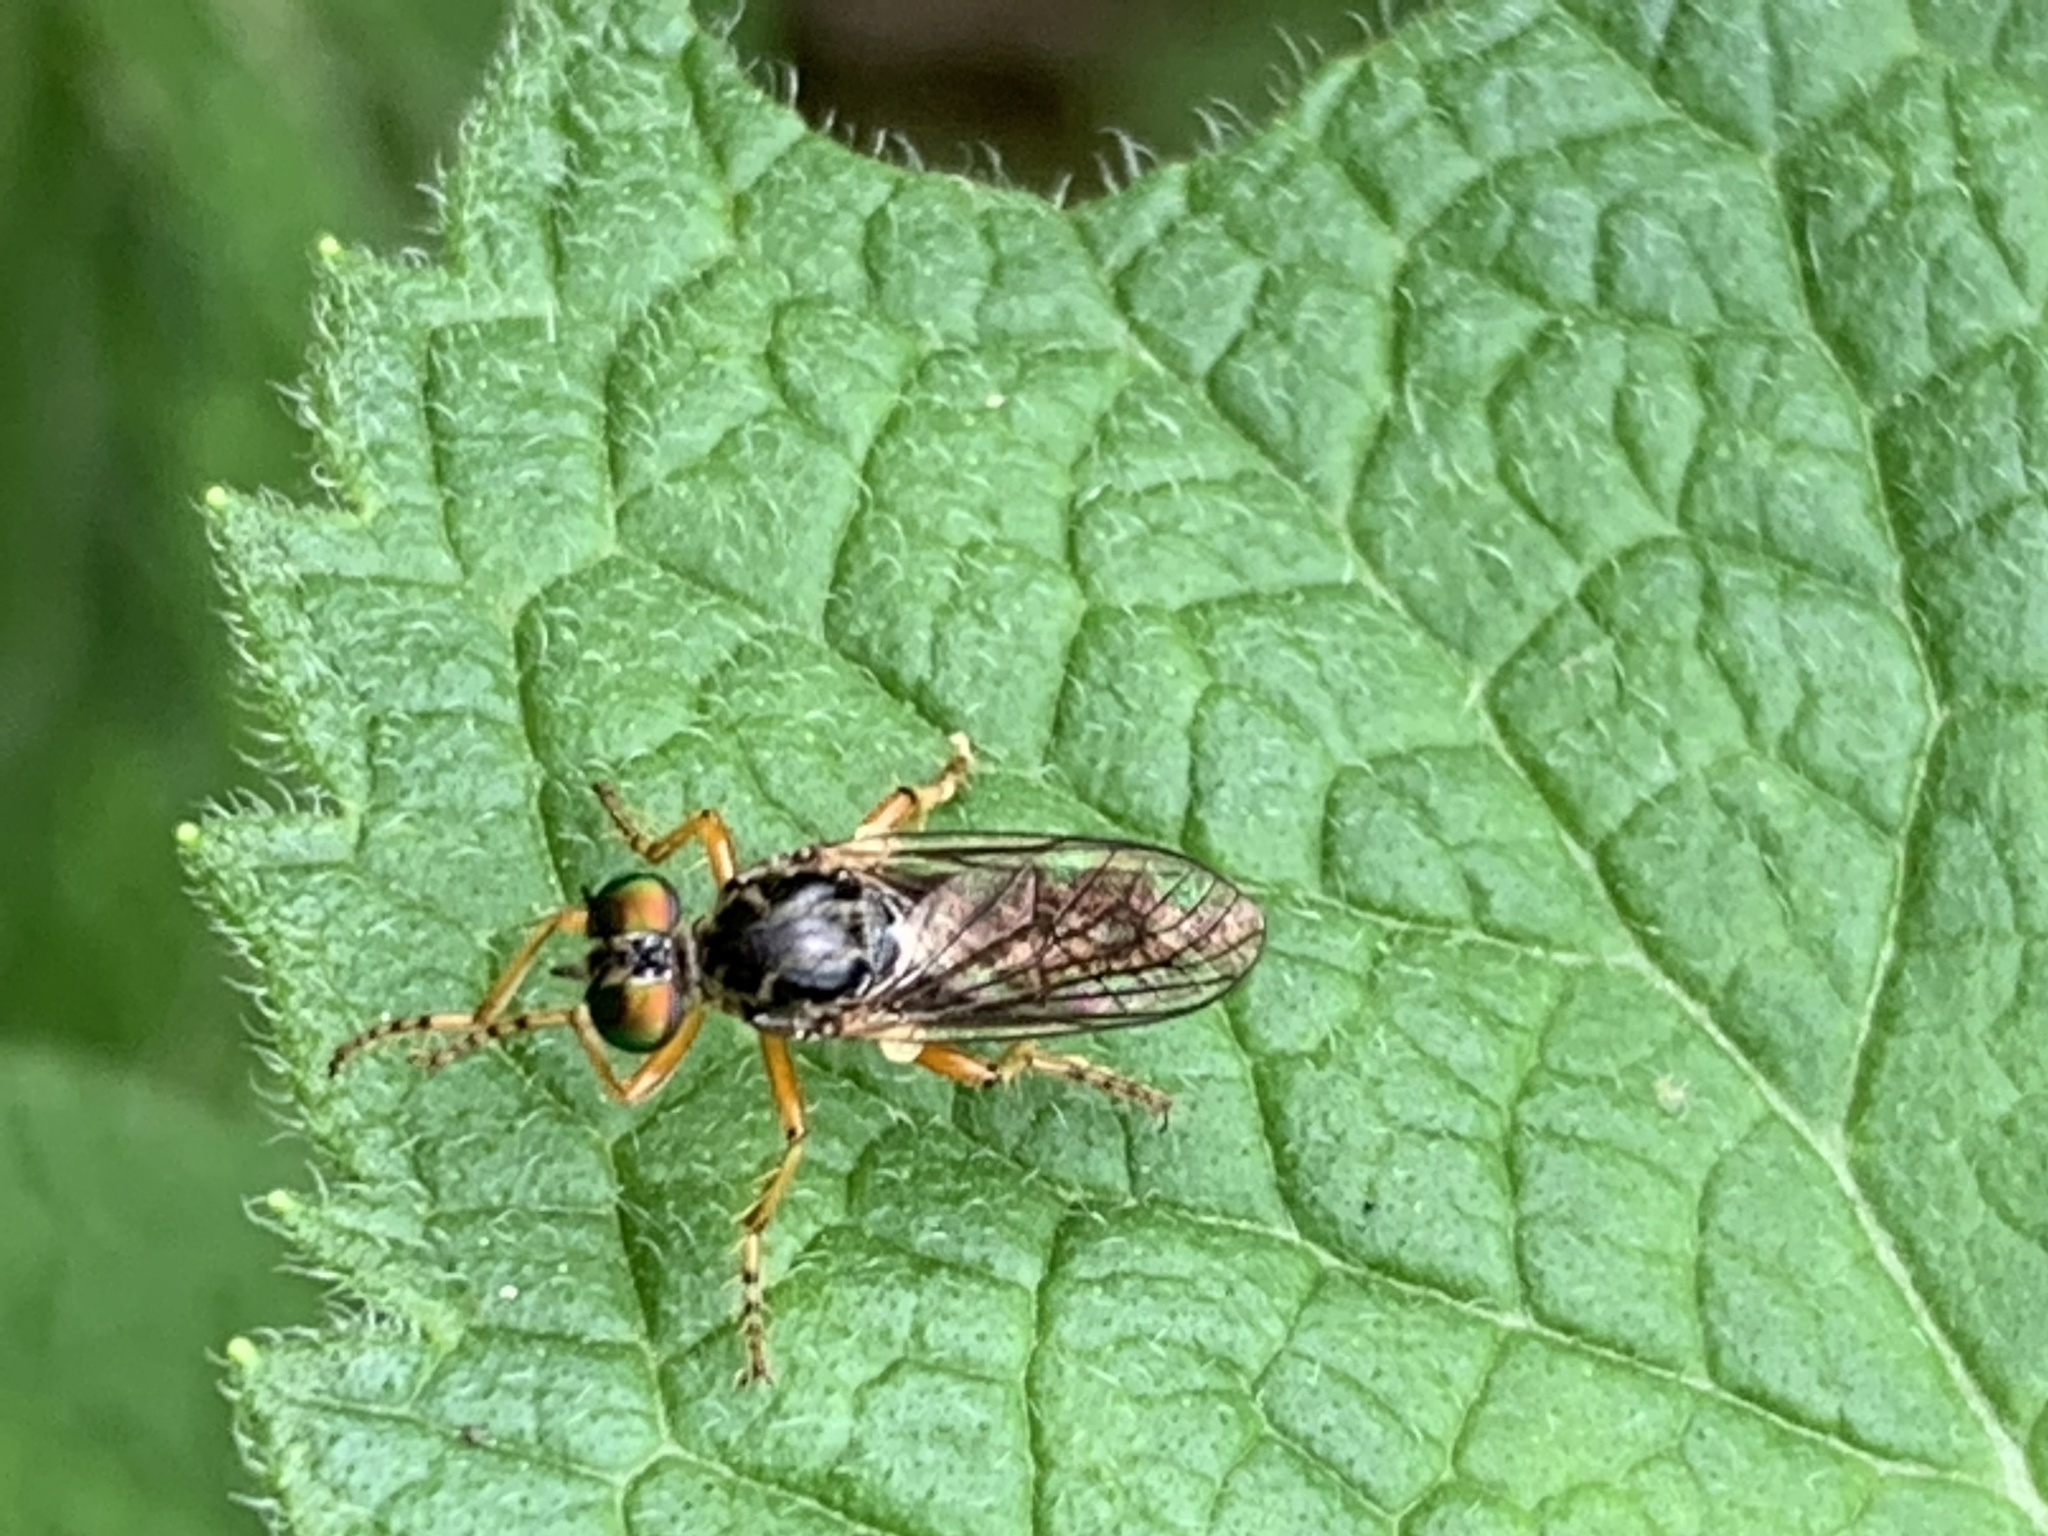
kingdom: Animalia
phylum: Arthropoda
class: Insecta
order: Diptera
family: Asilidae
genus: Taracticus
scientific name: Taracticus octopunctatus
